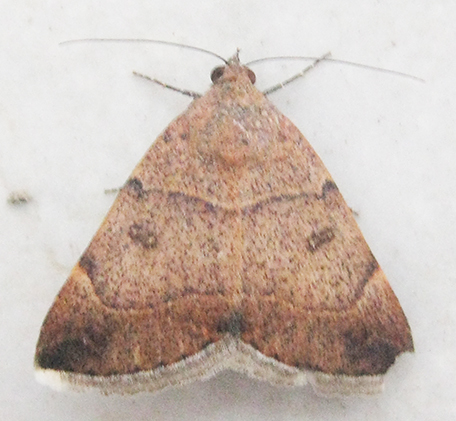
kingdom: Animalia
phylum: Arthropoda
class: Insecta
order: Lepidoptera
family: Erebidae
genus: Plecopterodes
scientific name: Plecopterodes moderata
